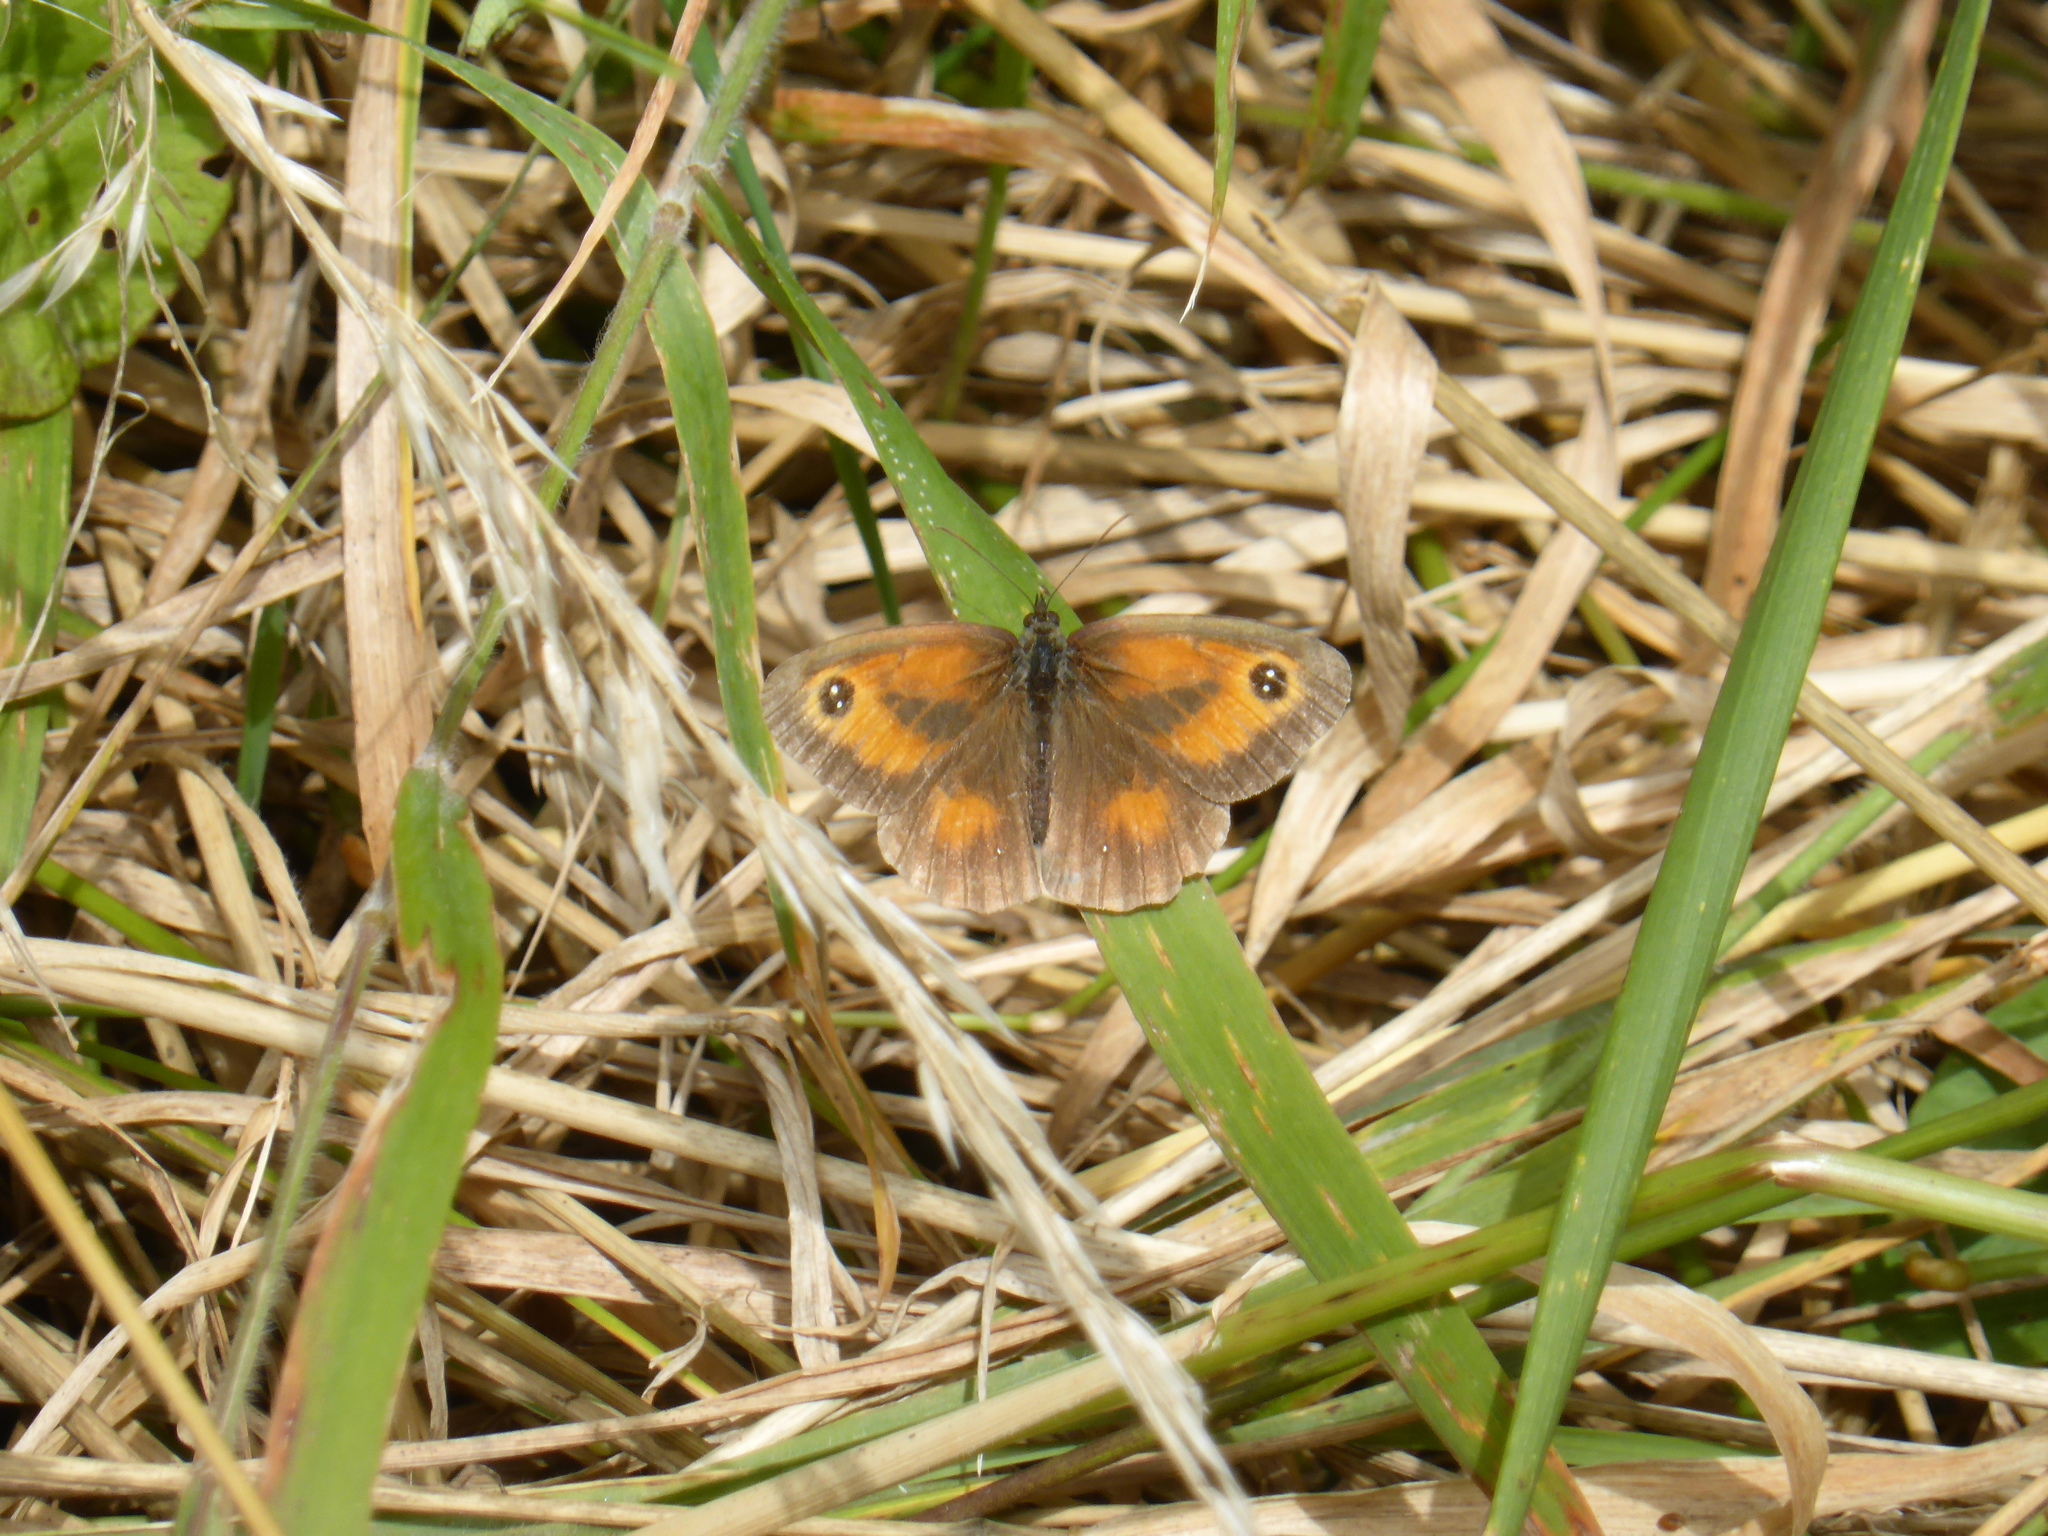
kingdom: Animalia
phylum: Arthropoda
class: Insecta
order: Lepidoptera
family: Nymphalidae
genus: Pyronia
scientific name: Pyronia tithonus
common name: Gatekeeper
